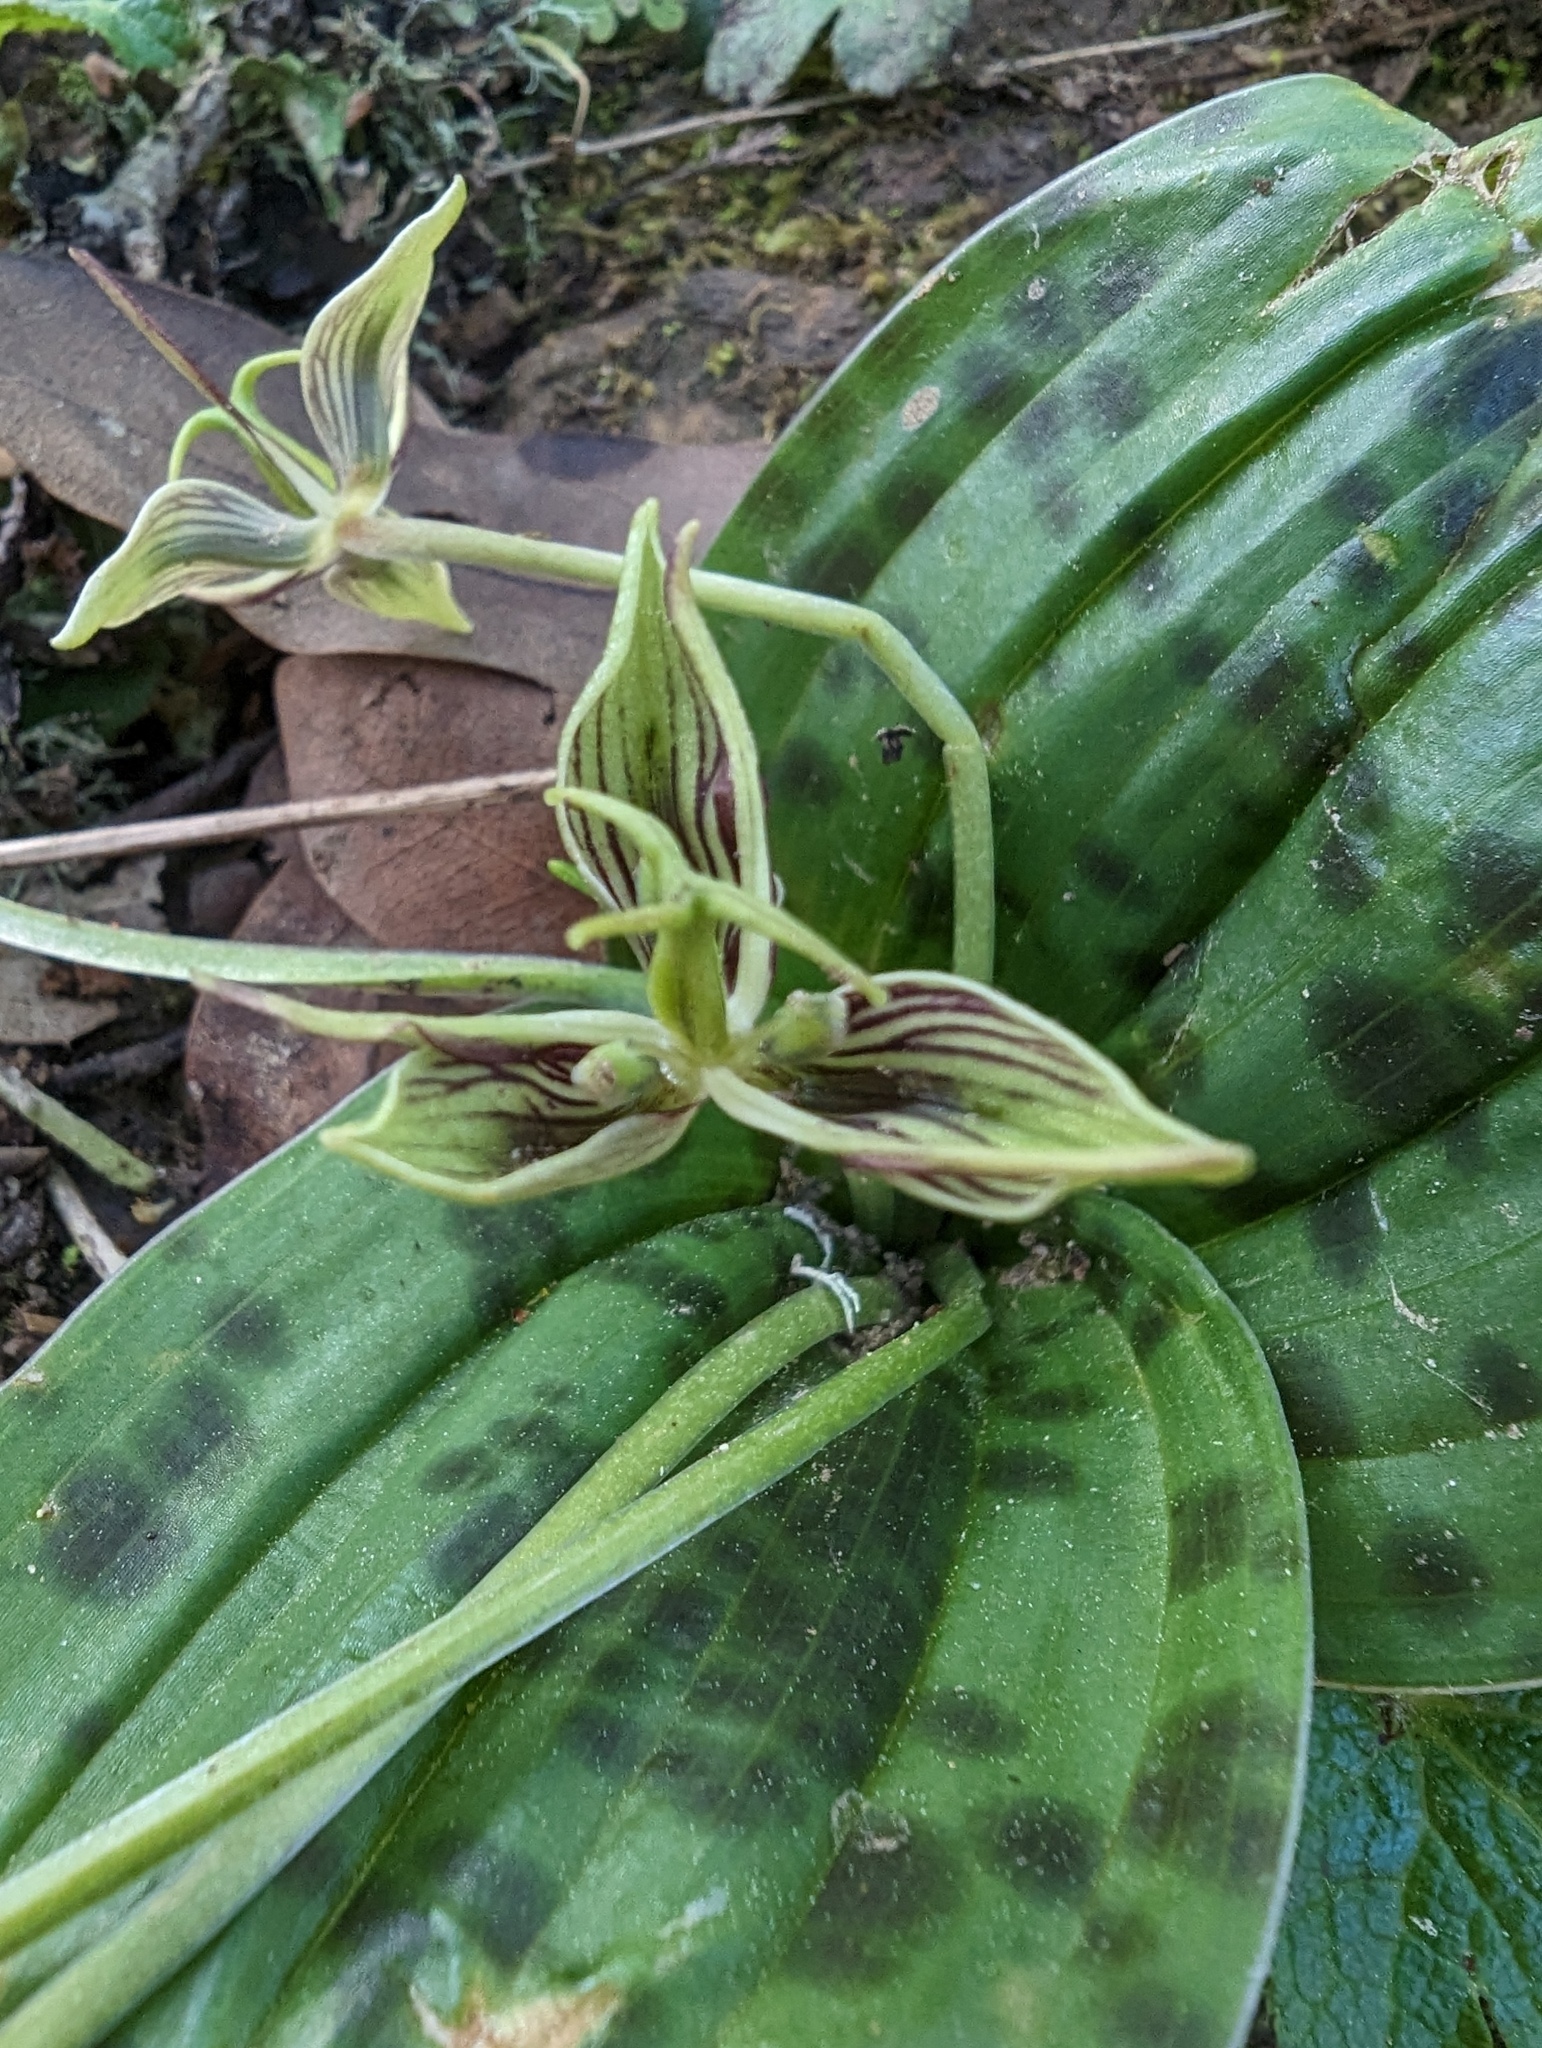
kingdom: Plantae
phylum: Tracheophyta
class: Liliopsida
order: Liliales
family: Liliaceae
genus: Scoliopus
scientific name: Scoliopus bigelovii
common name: Foetid adder's-tongue
